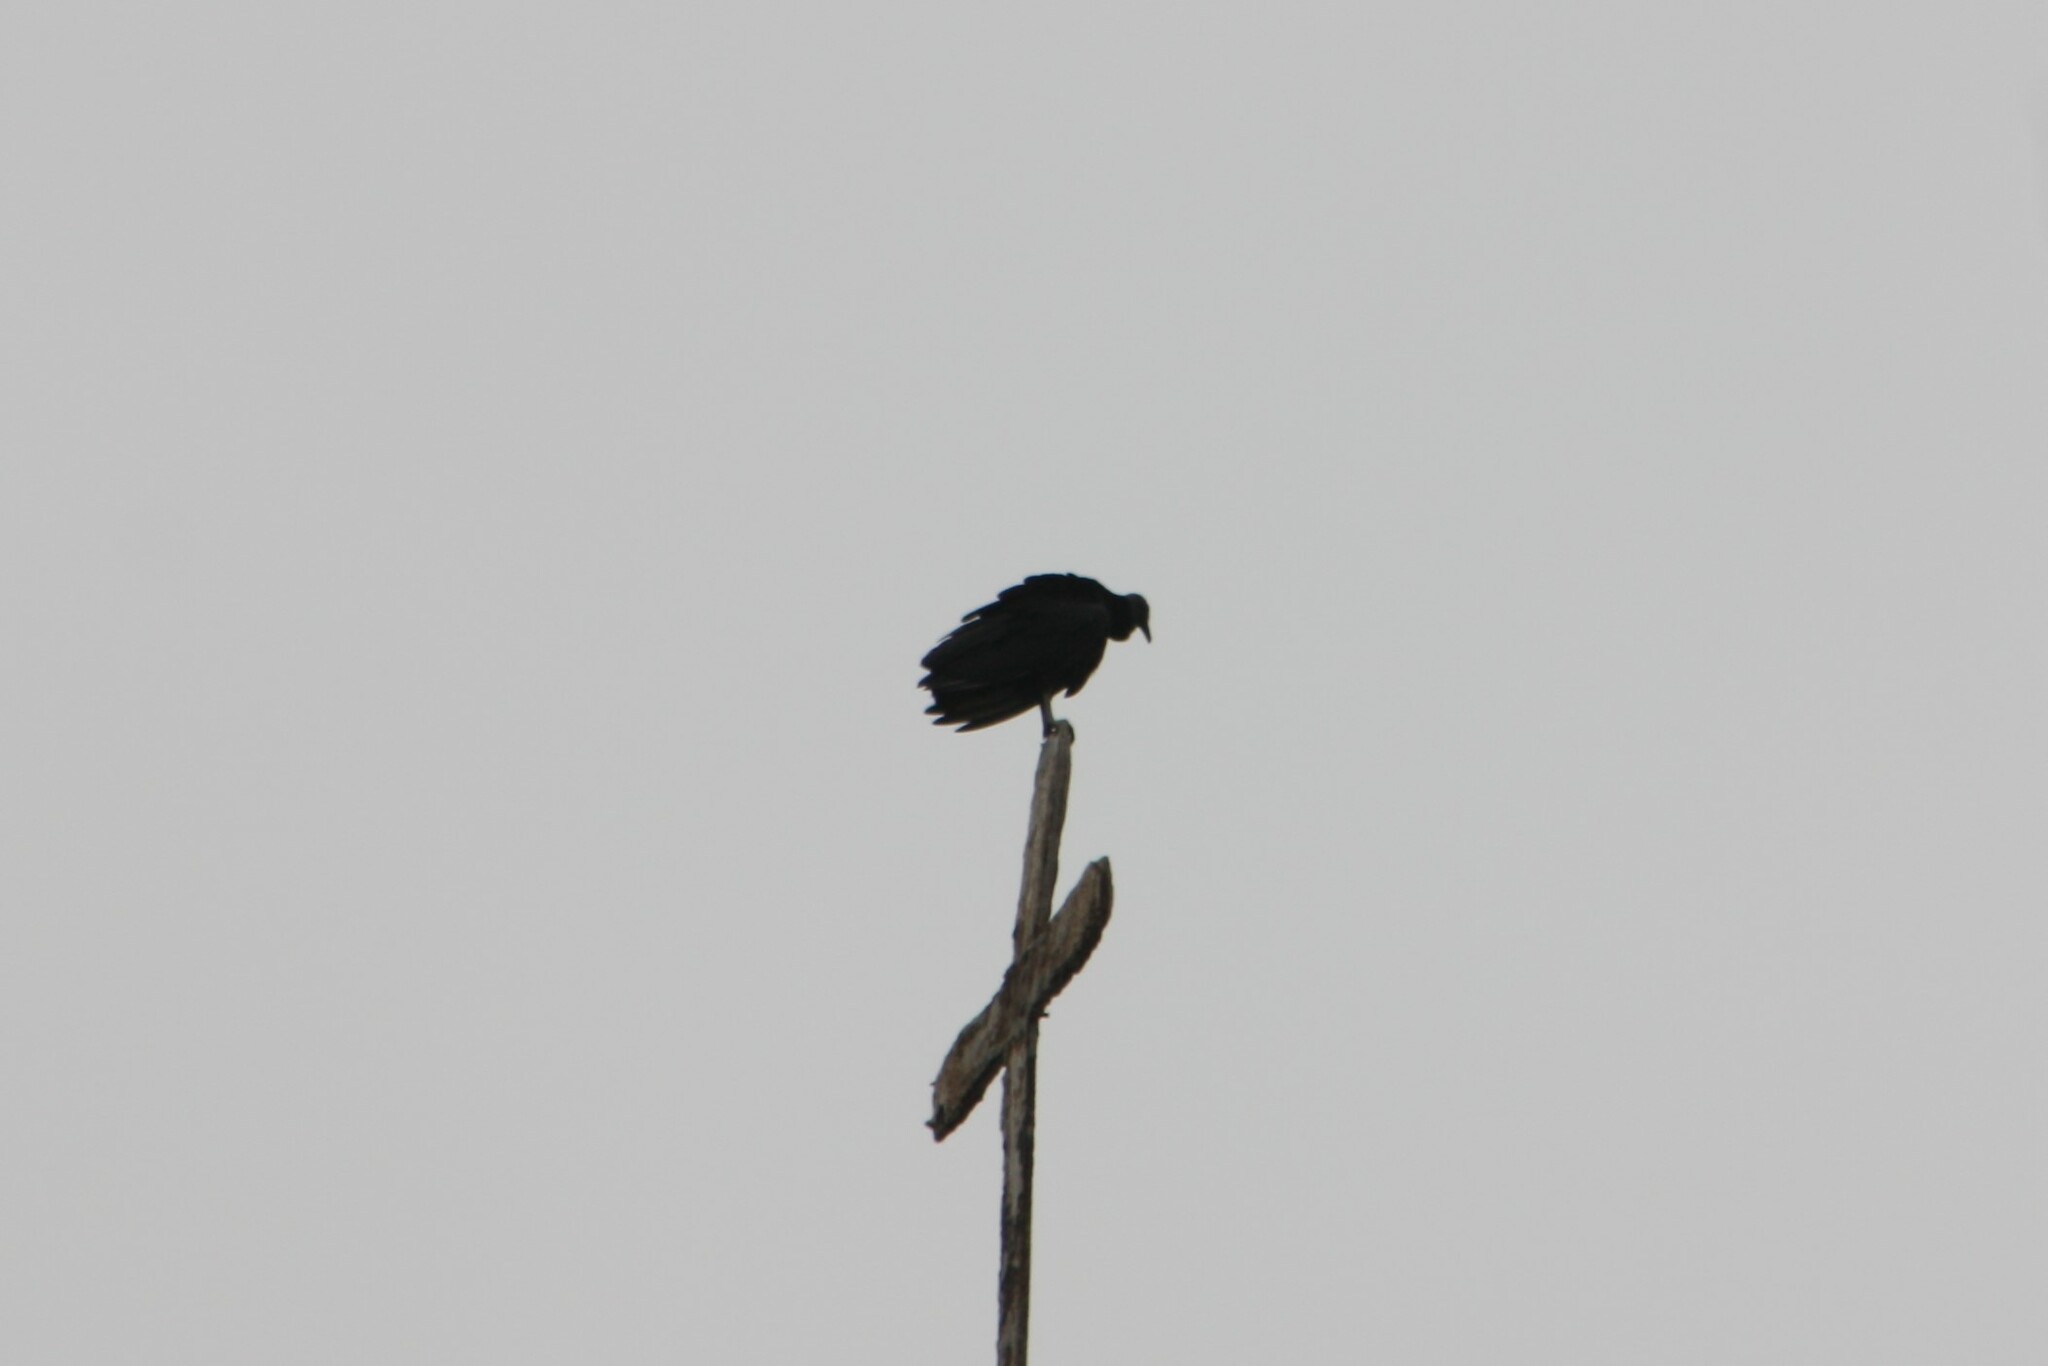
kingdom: Animalia
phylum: Chordata
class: Aves
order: Accipitriformes
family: Cathartidae
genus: Coragyps
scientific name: Coragyps atratus
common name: Black vulture
